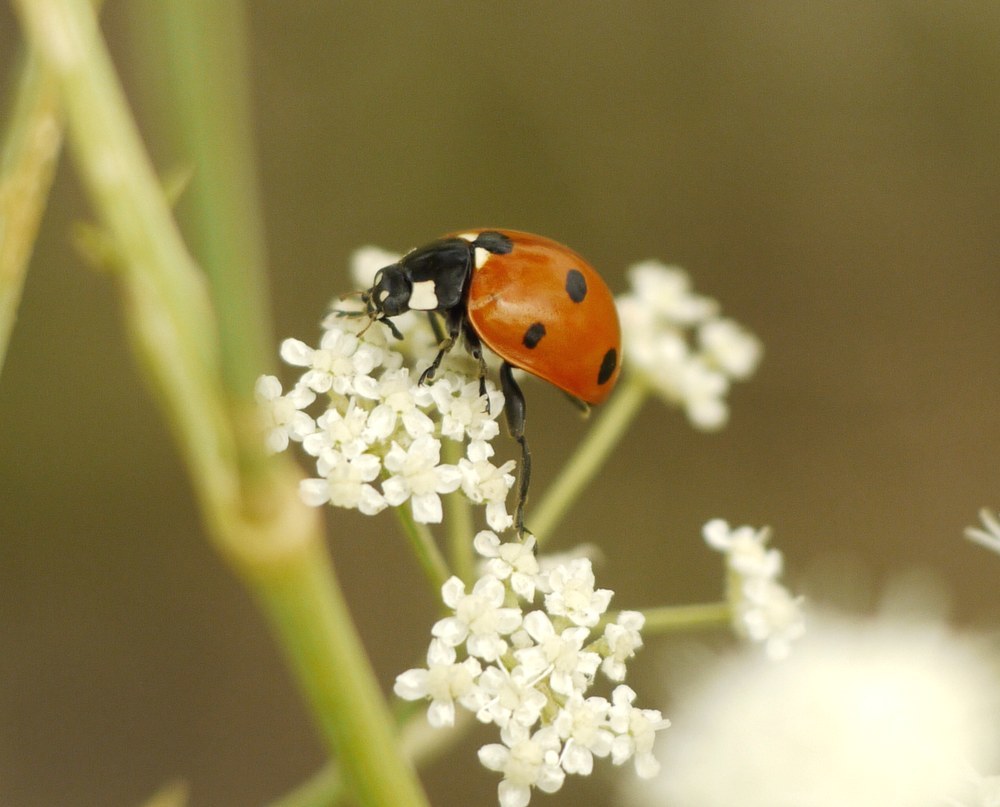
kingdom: Animalia
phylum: Arthropoda
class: Insecta
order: Coleoptera
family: Coccinellidae
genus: Coccinella
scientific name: Coccinella septempunctata
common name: Sevenspotted lady beetle
